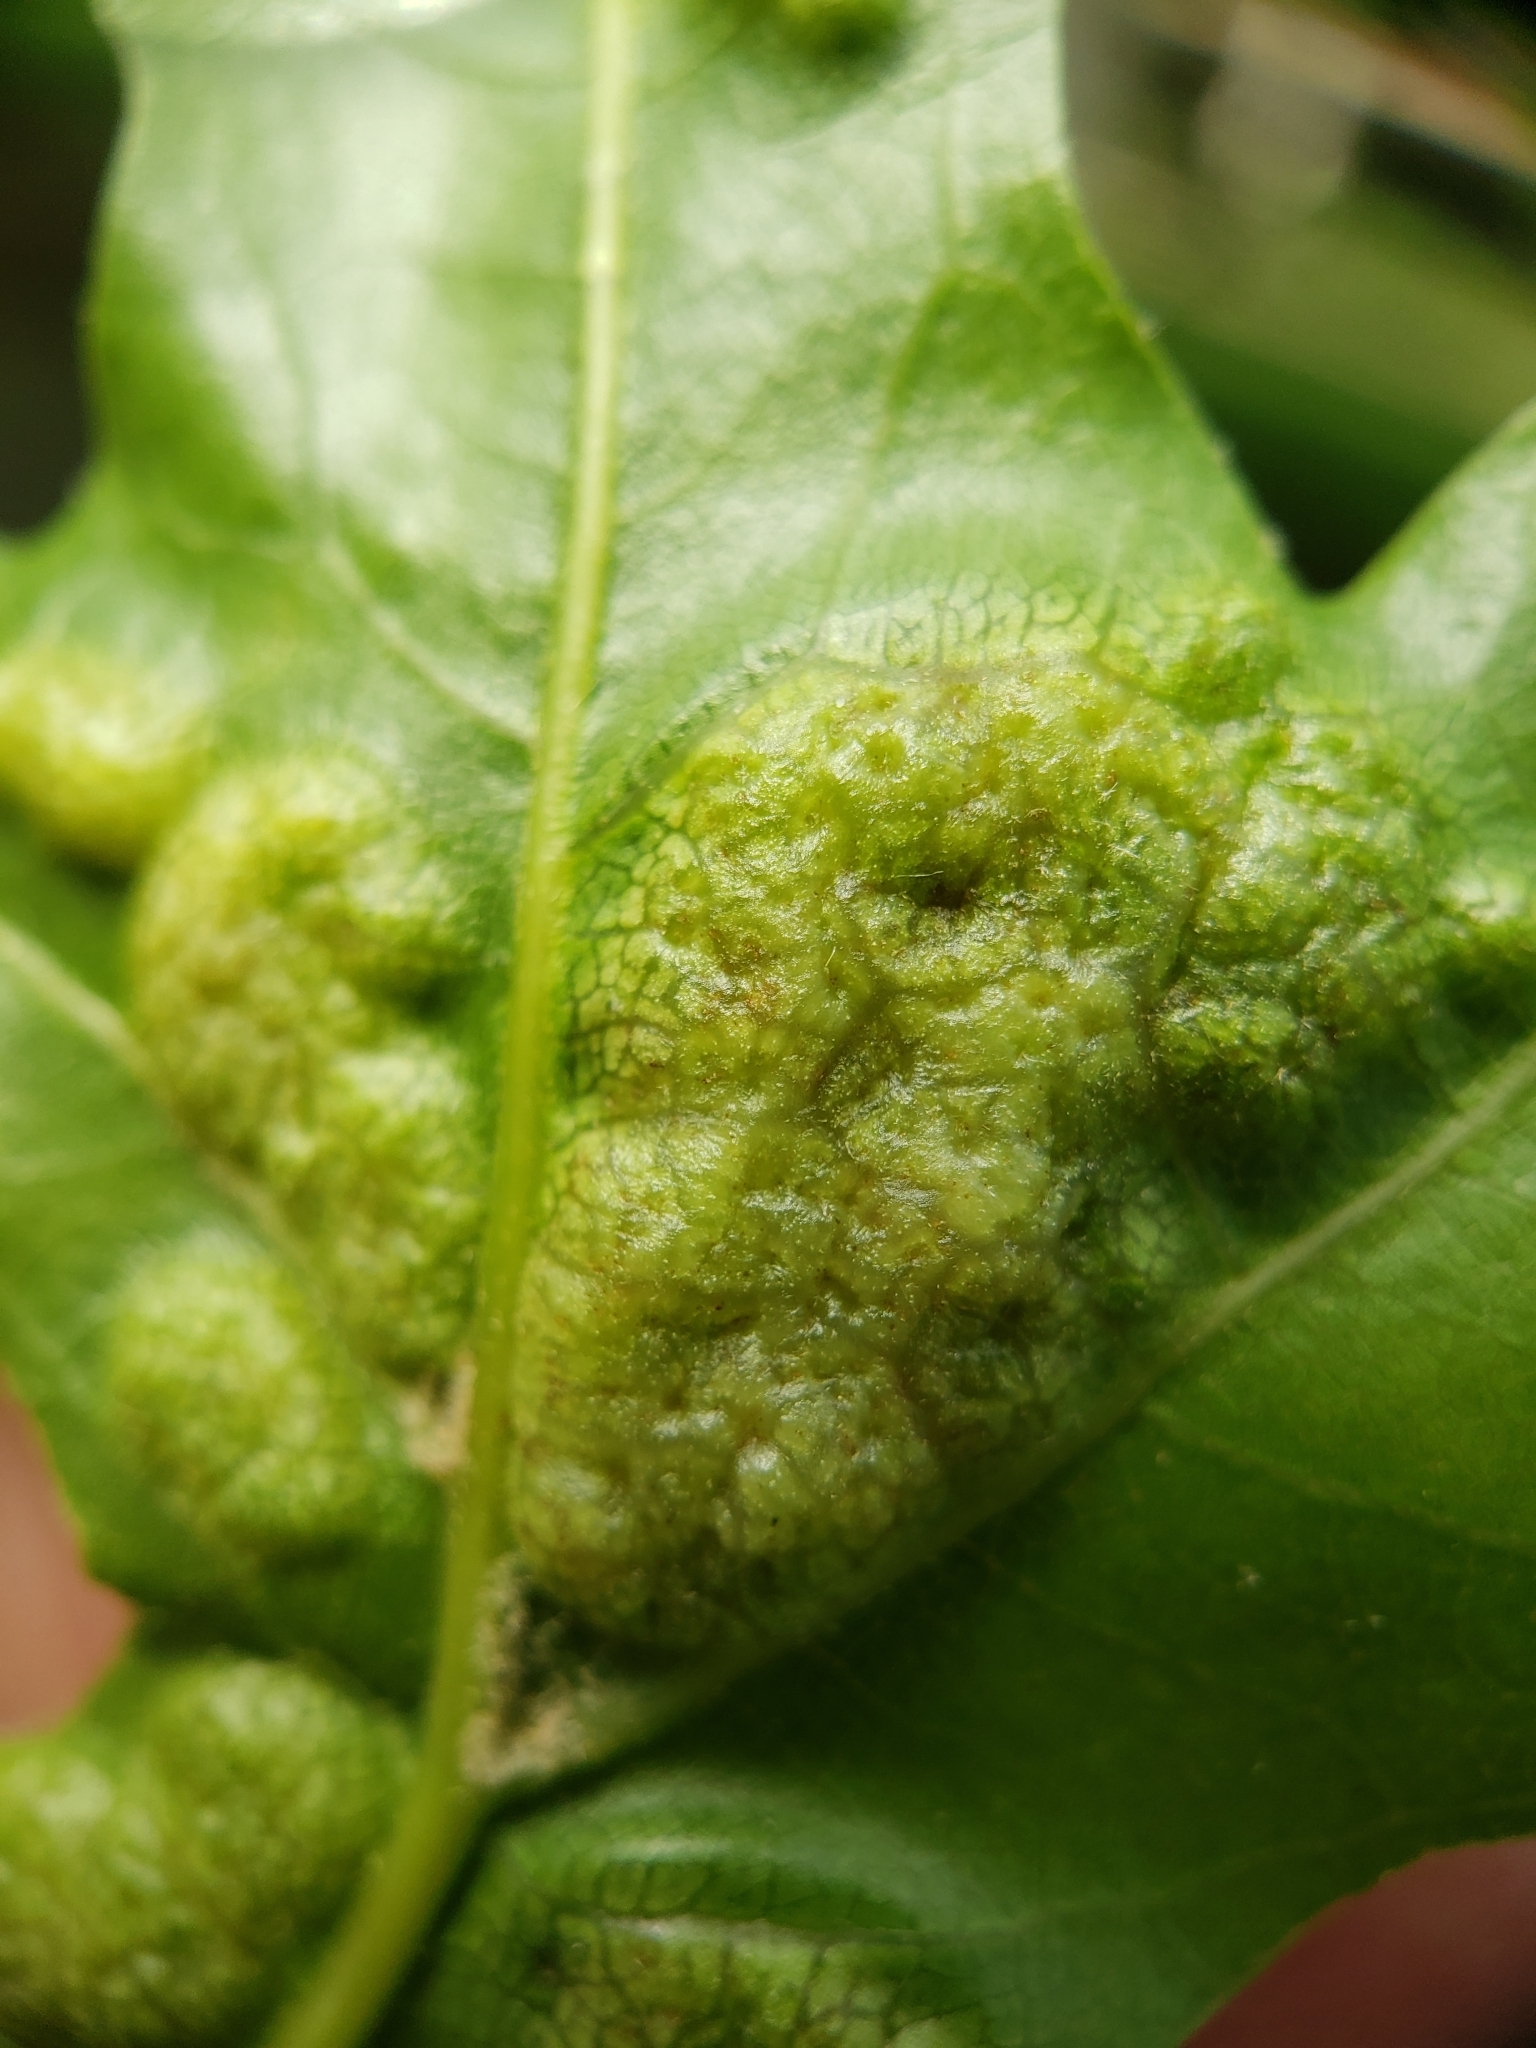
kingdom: Animalia
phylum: Arthropoda
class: Insecta
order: Hymenoptera
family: Cynipidae
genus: Callirhytis
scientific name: Callirhytis
